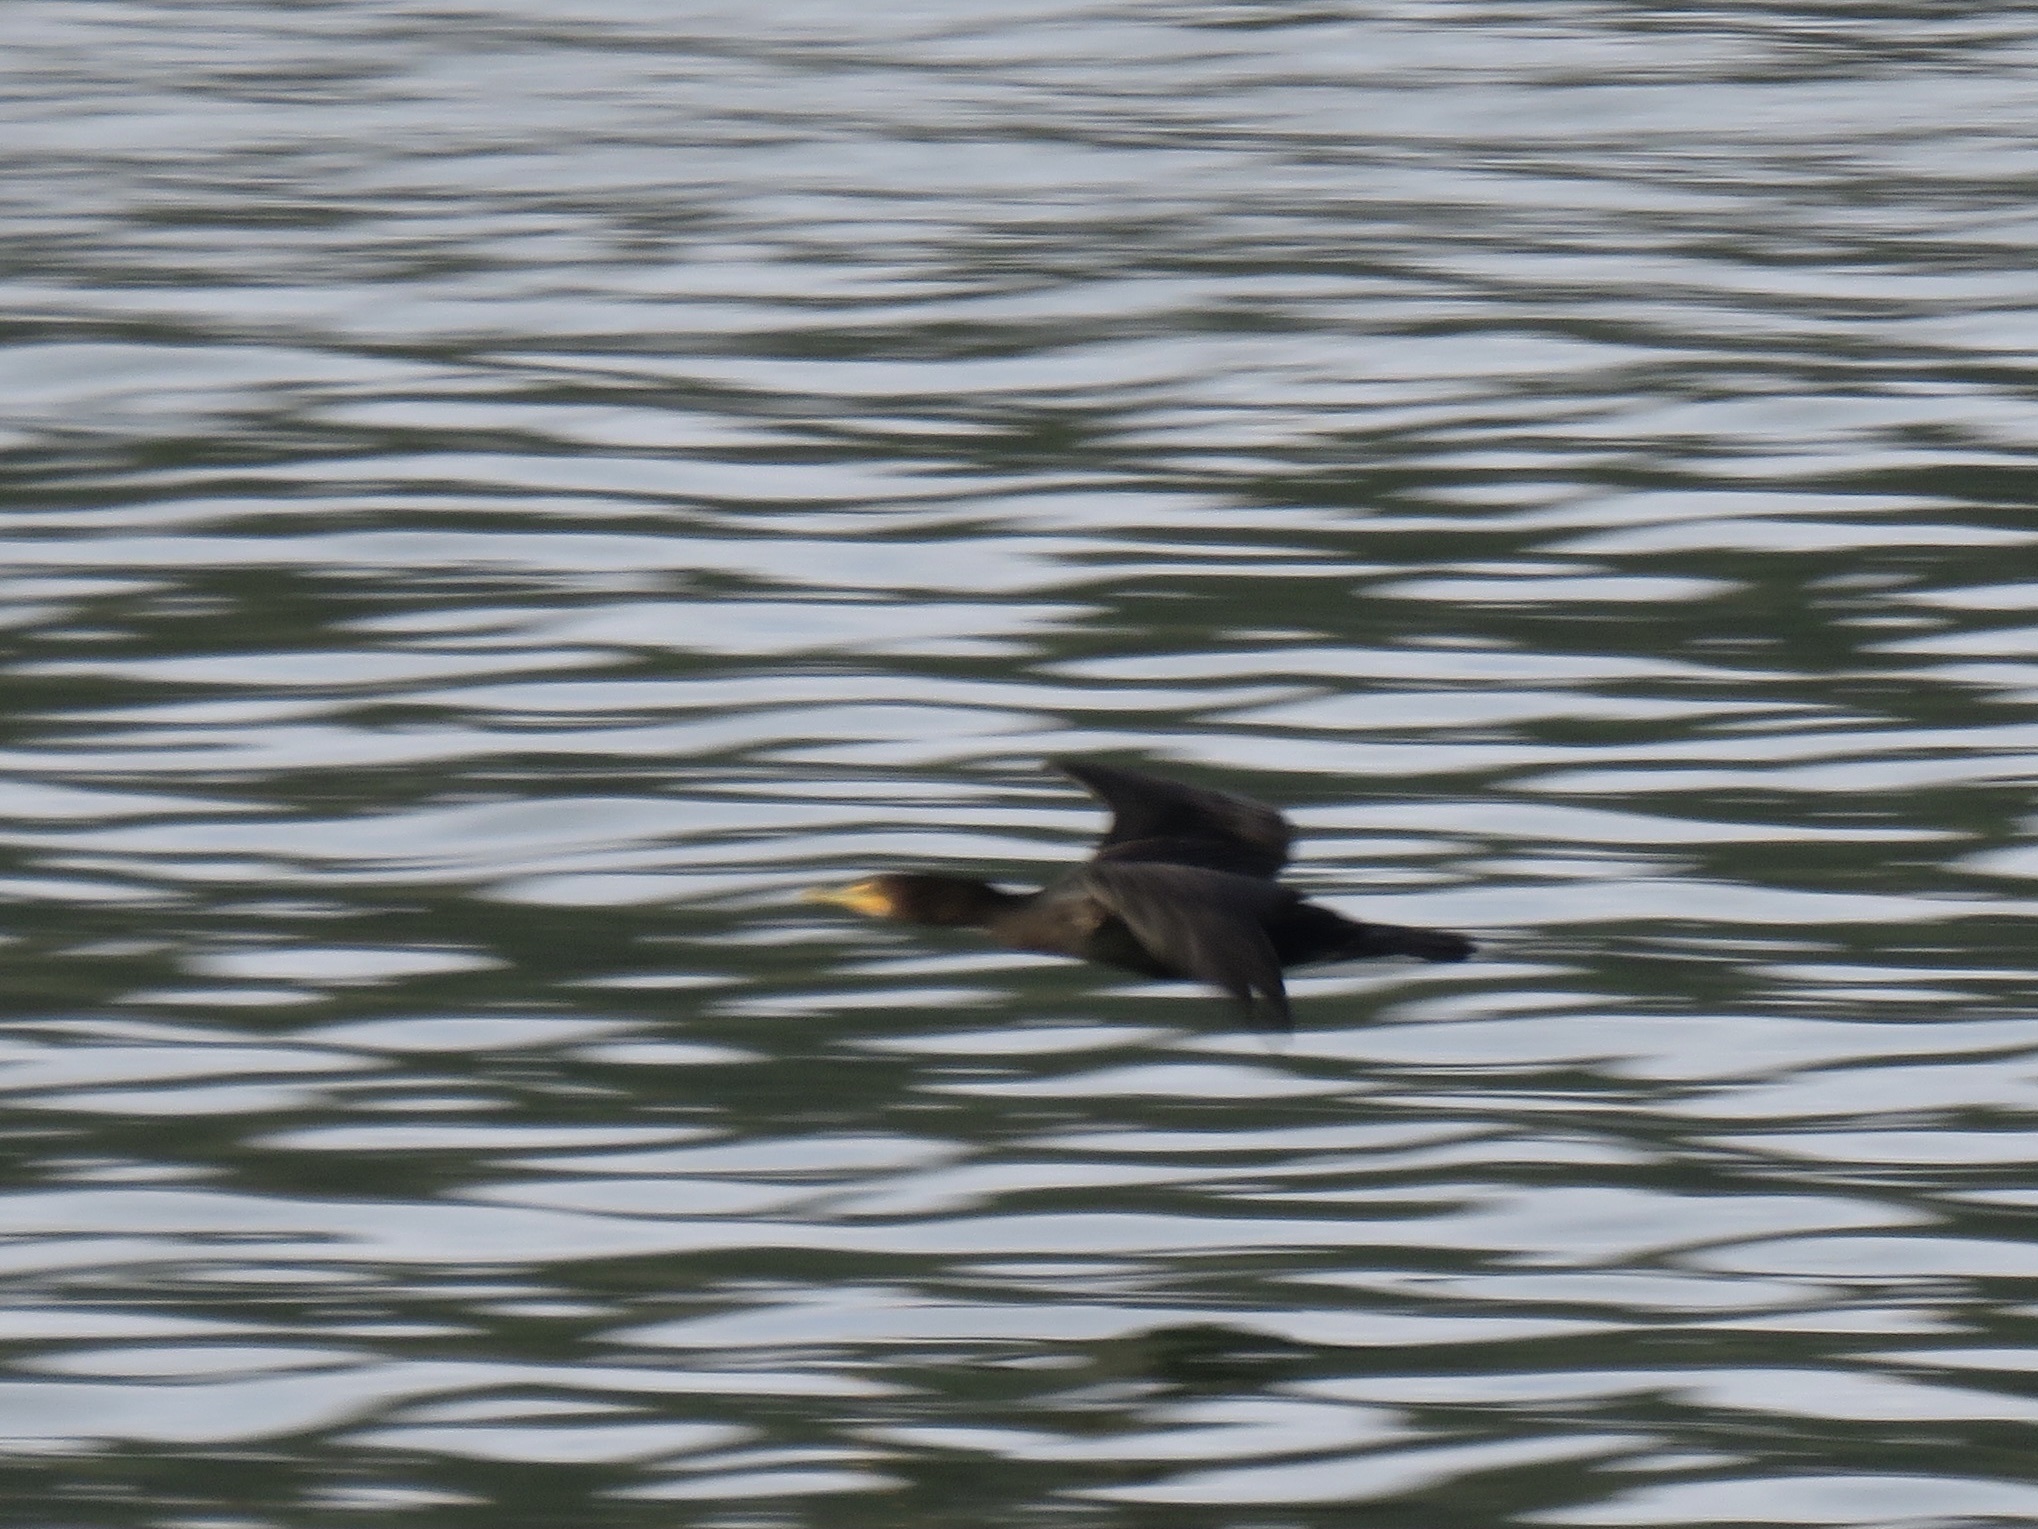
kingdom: Animalia
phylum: Chordata
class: Aves
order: Suliformes
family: Phalacrocoracidae
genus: Phalacrocorax
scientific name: Phalacrocorax auritus
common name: Double-crested cormorant
